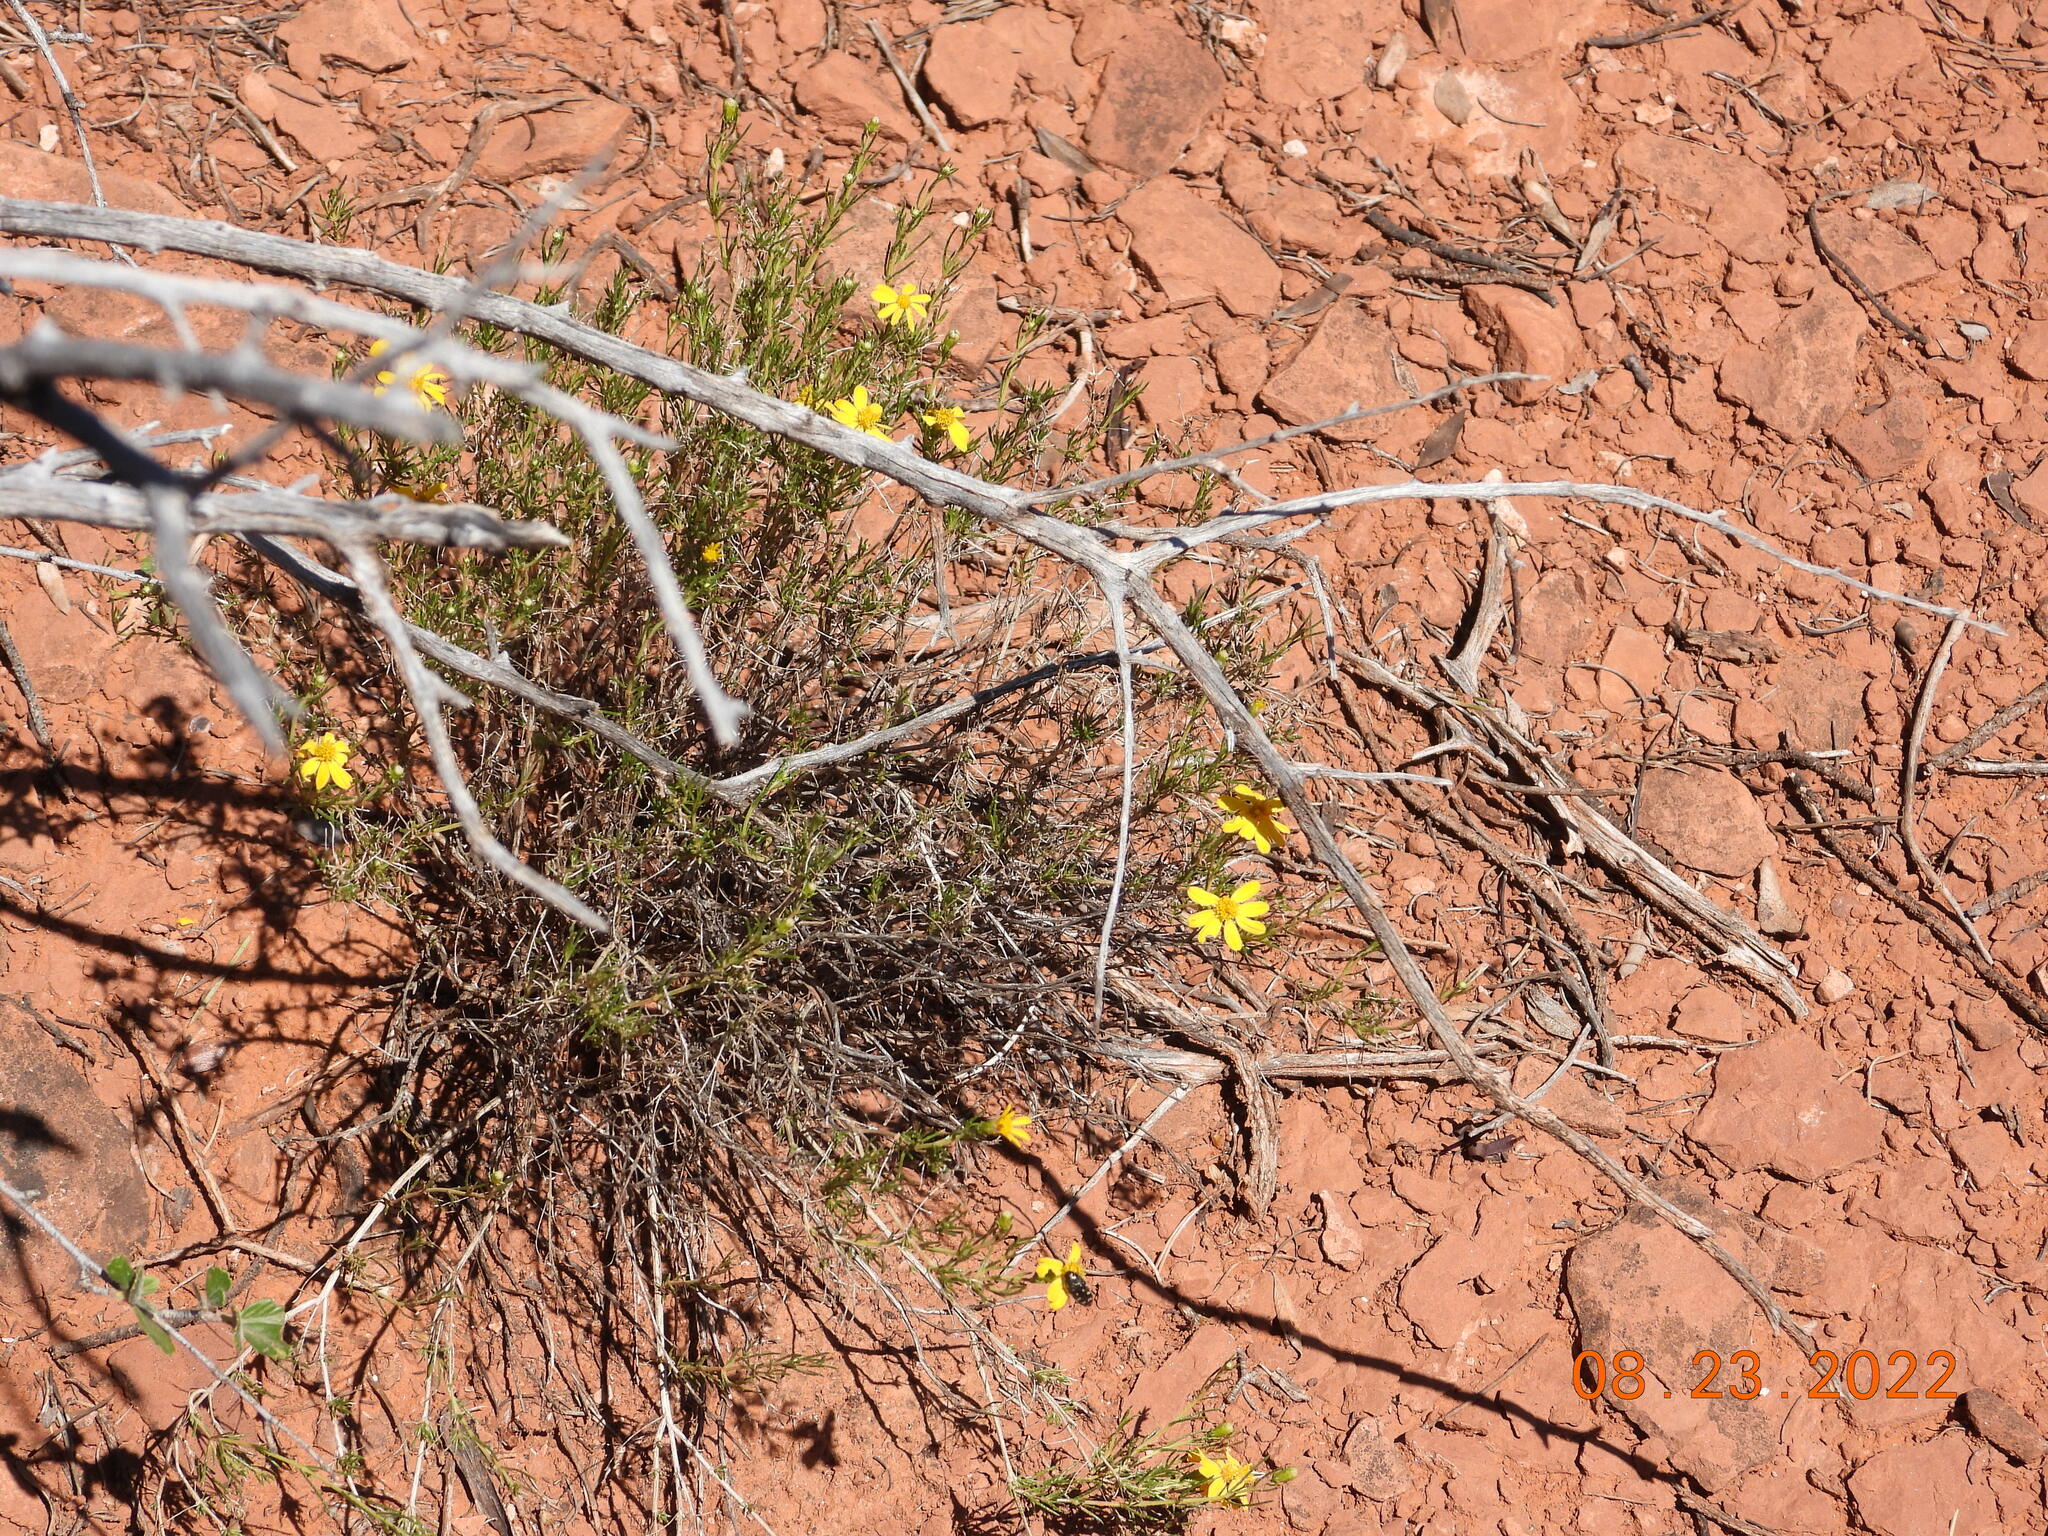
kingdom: Plantae
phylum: Tracheophyta
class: Magnoliopsida
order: Asterales
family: Asteraceae
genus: Ericameria
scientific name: Ericameria linearifolia
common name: Interior goldenbush
